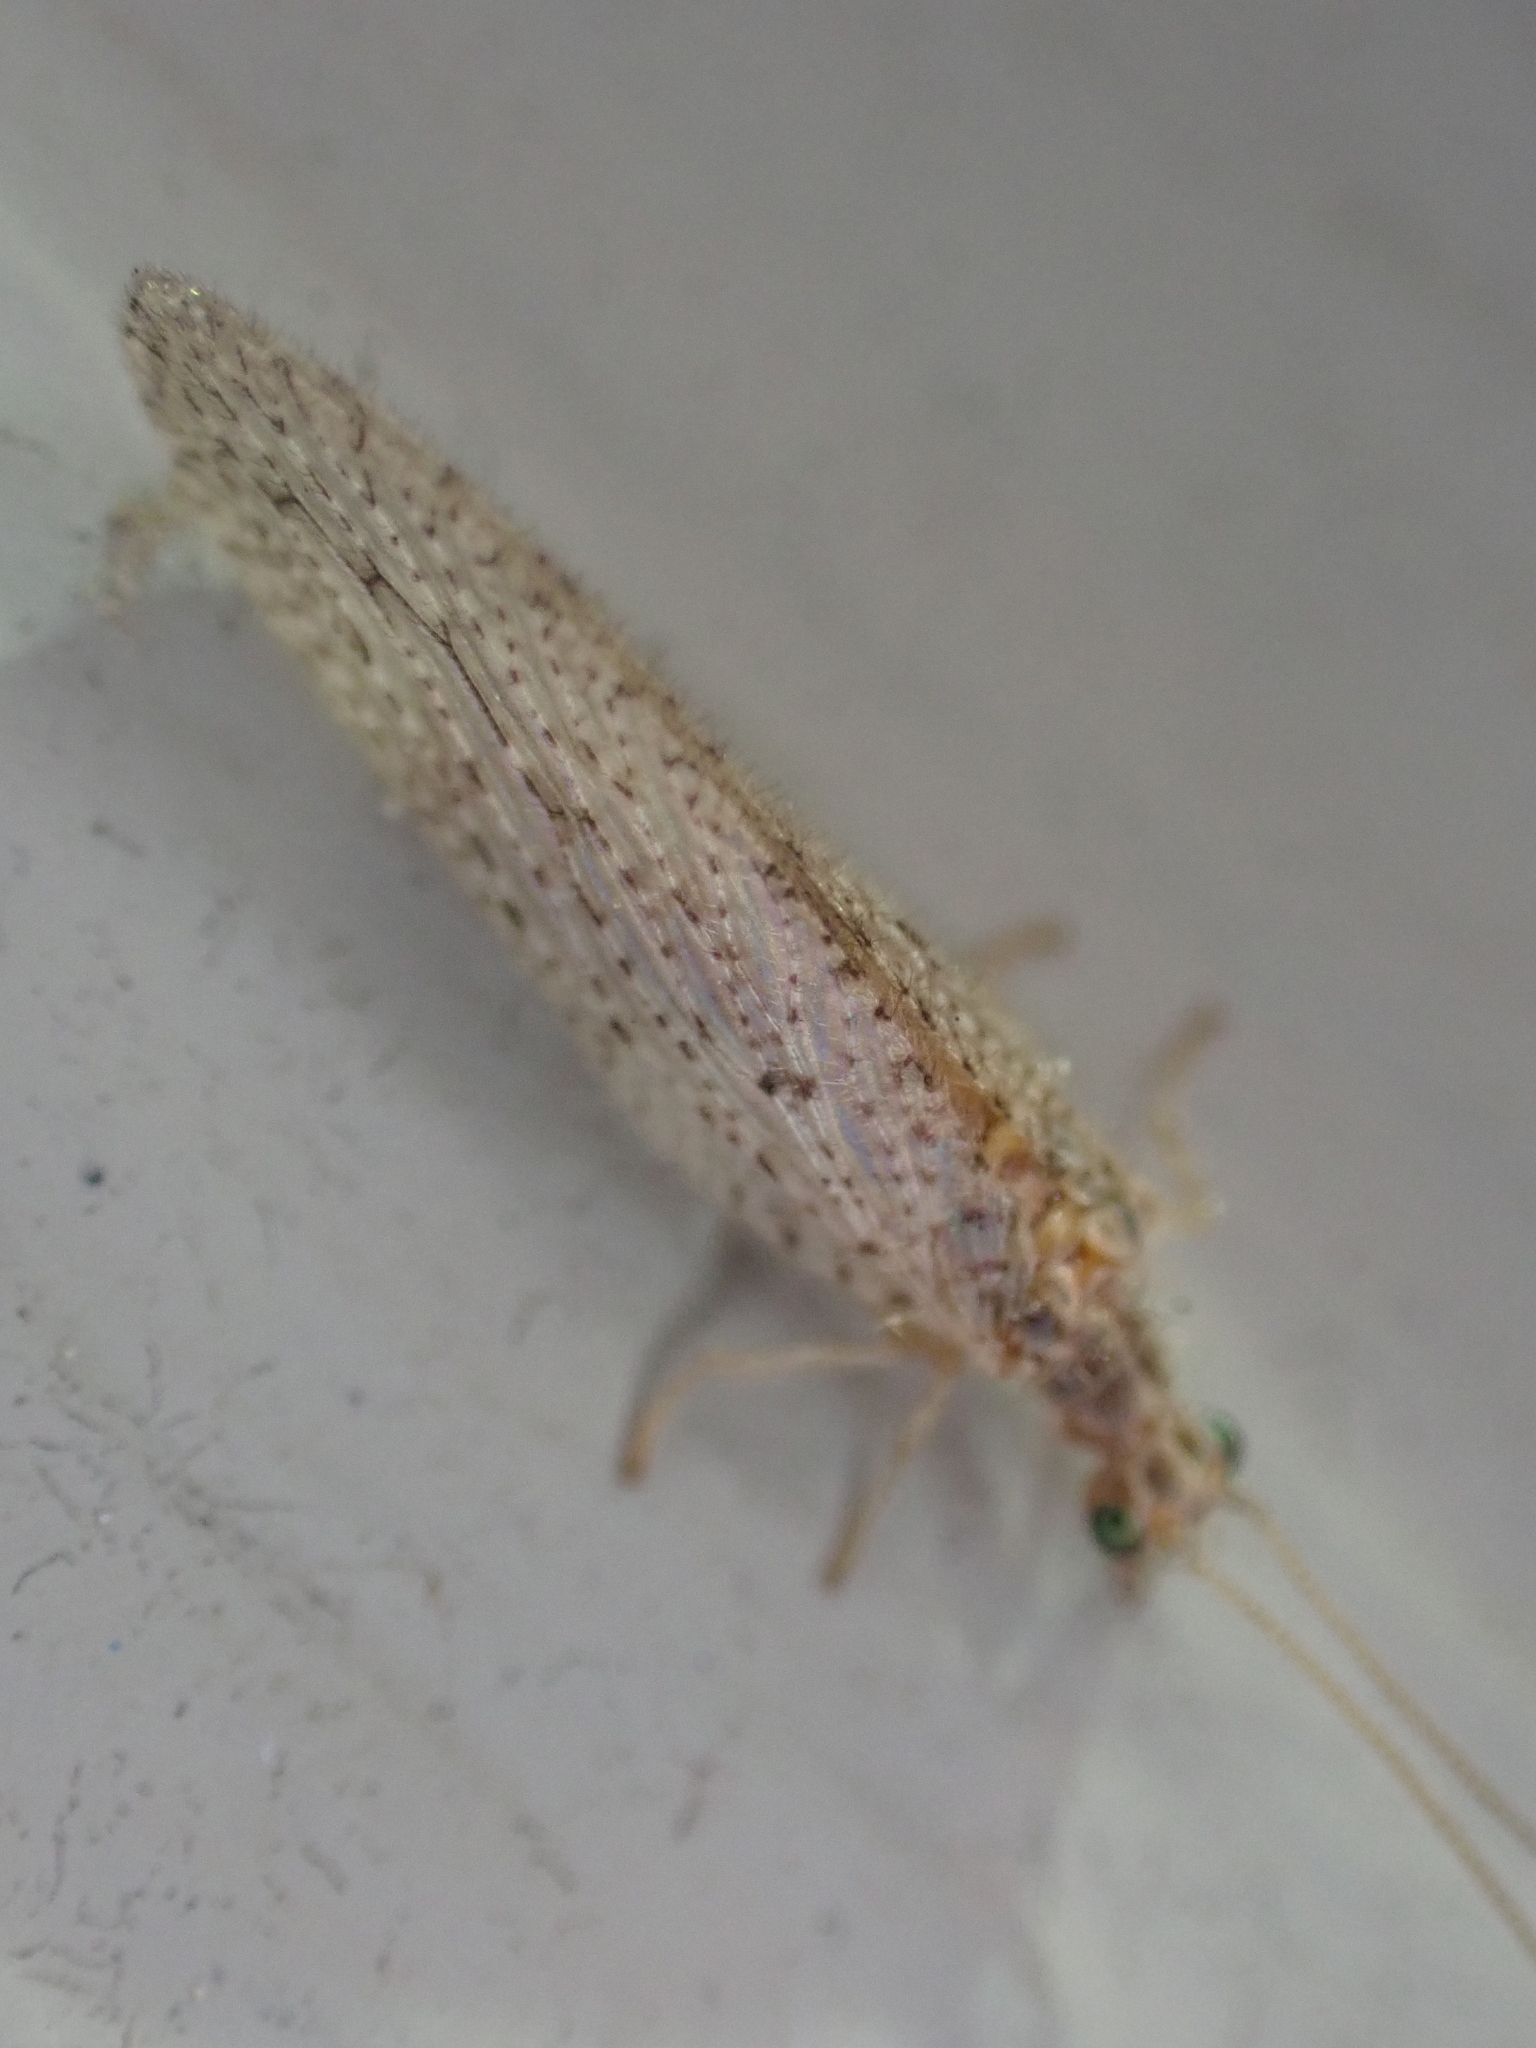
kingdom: Animalia
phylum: Arthropoda
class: Insecta
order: Neuroptera
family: Hemerobiidae
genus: Micromus
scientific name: Micromus subanticus
